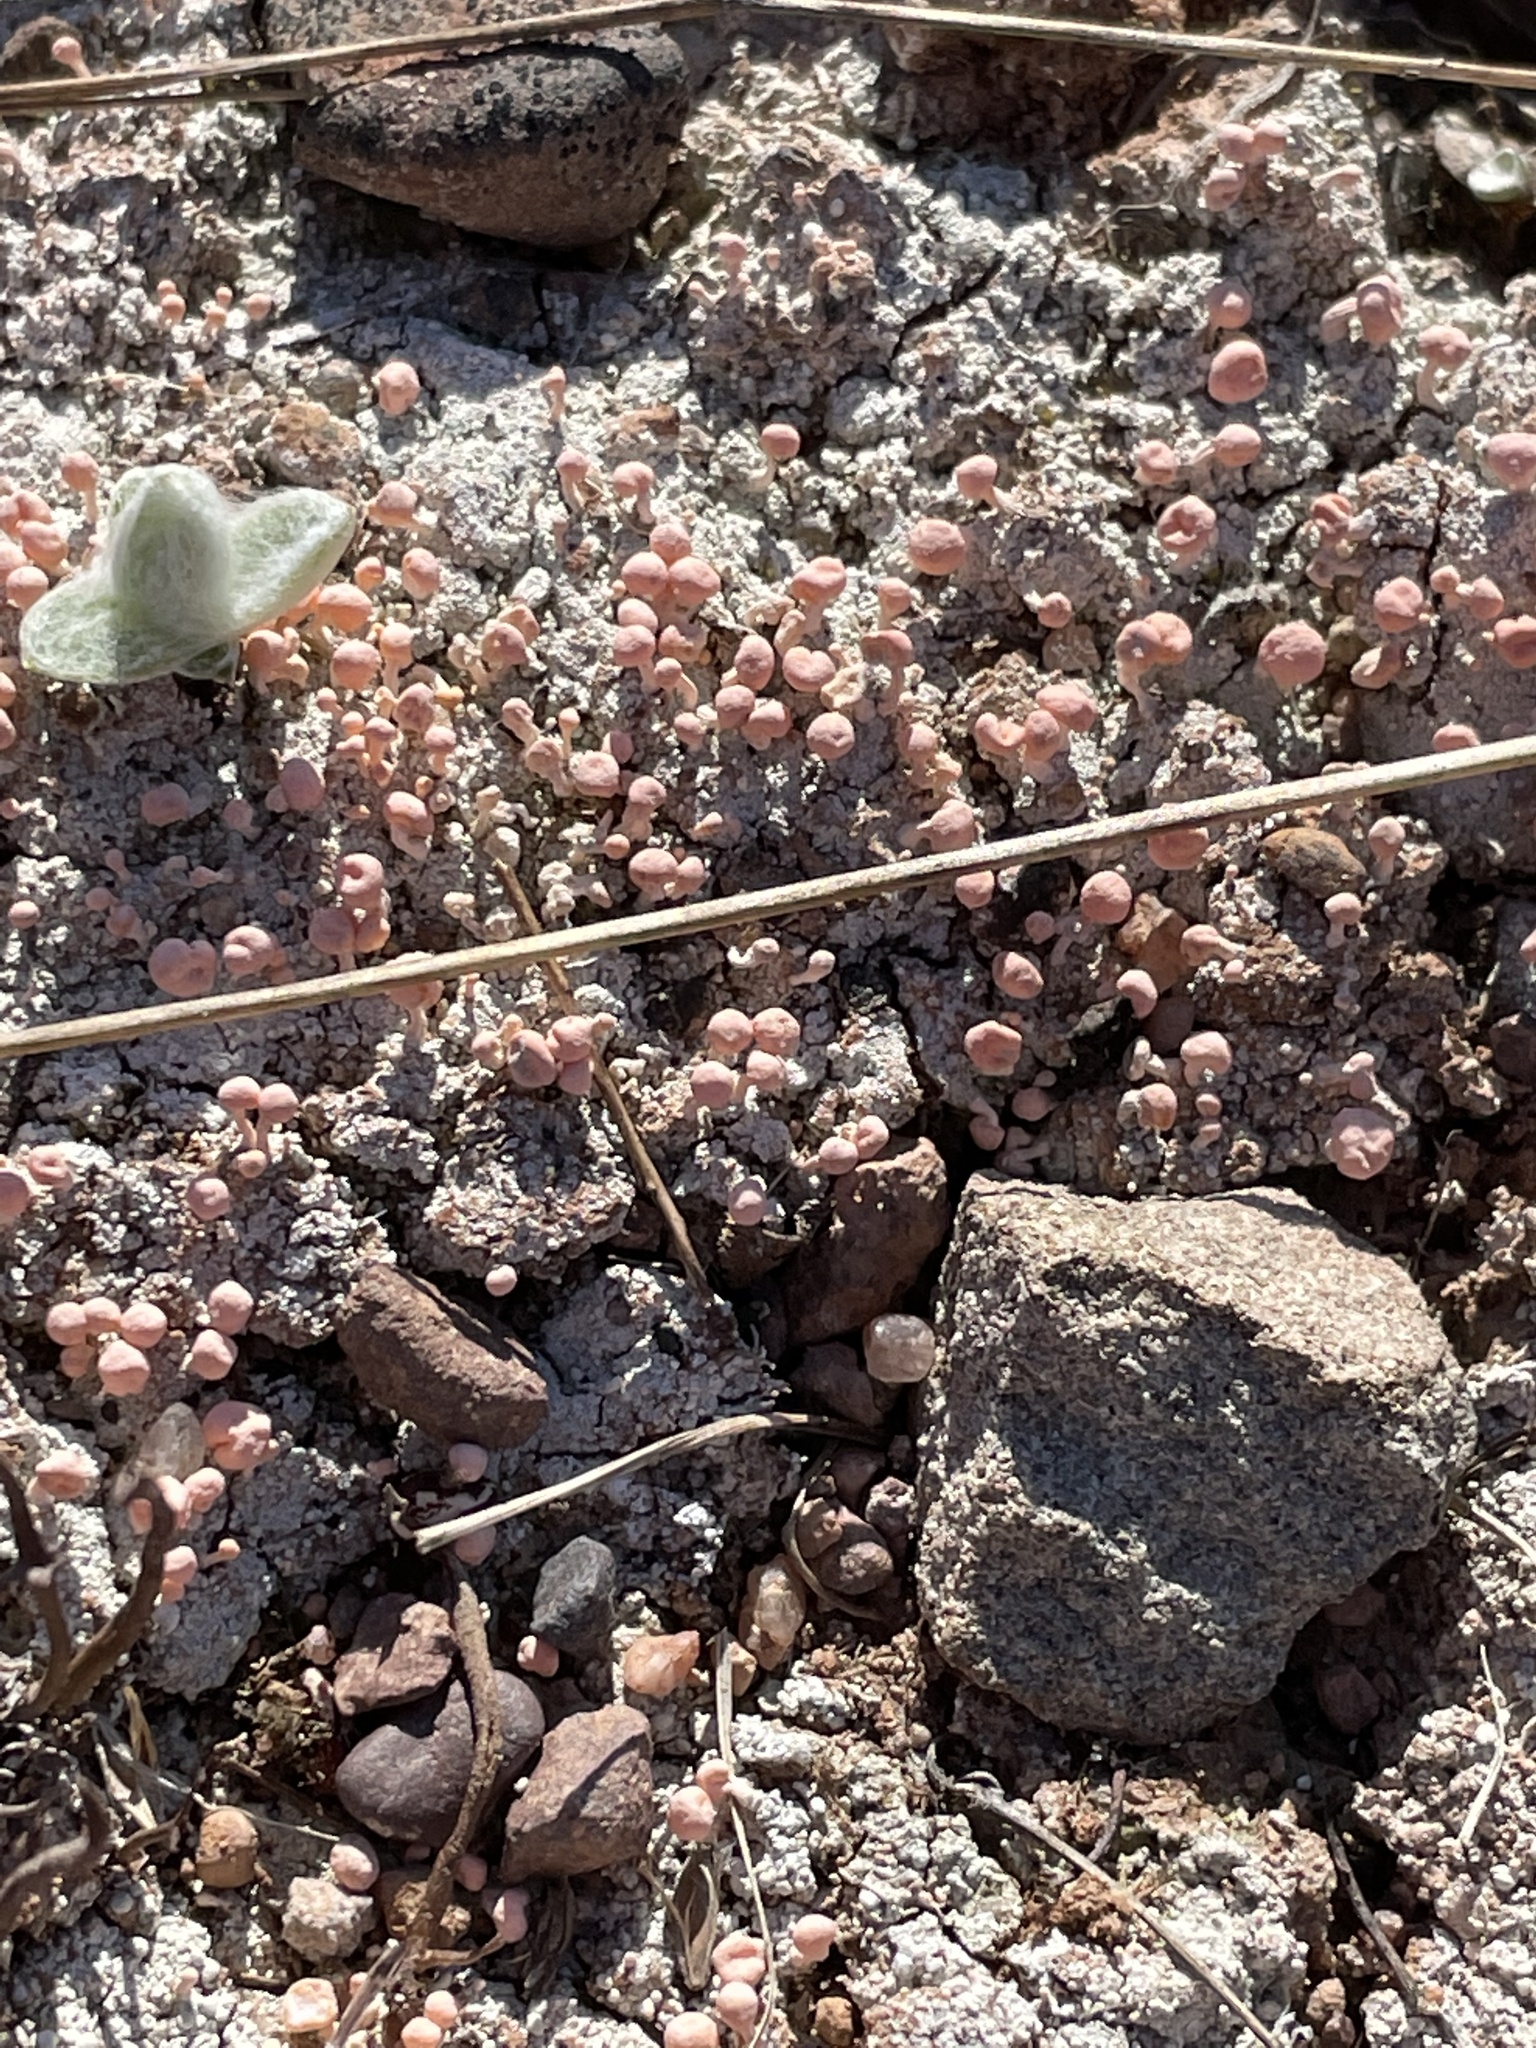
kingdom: Fungi
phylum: Ascomycota
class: Lecanoromycetes
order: Pertusariales
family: Icmadophilaceae
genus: Dibaeis
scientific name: Dibaeis baeomyces
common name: Pink earth lichen
